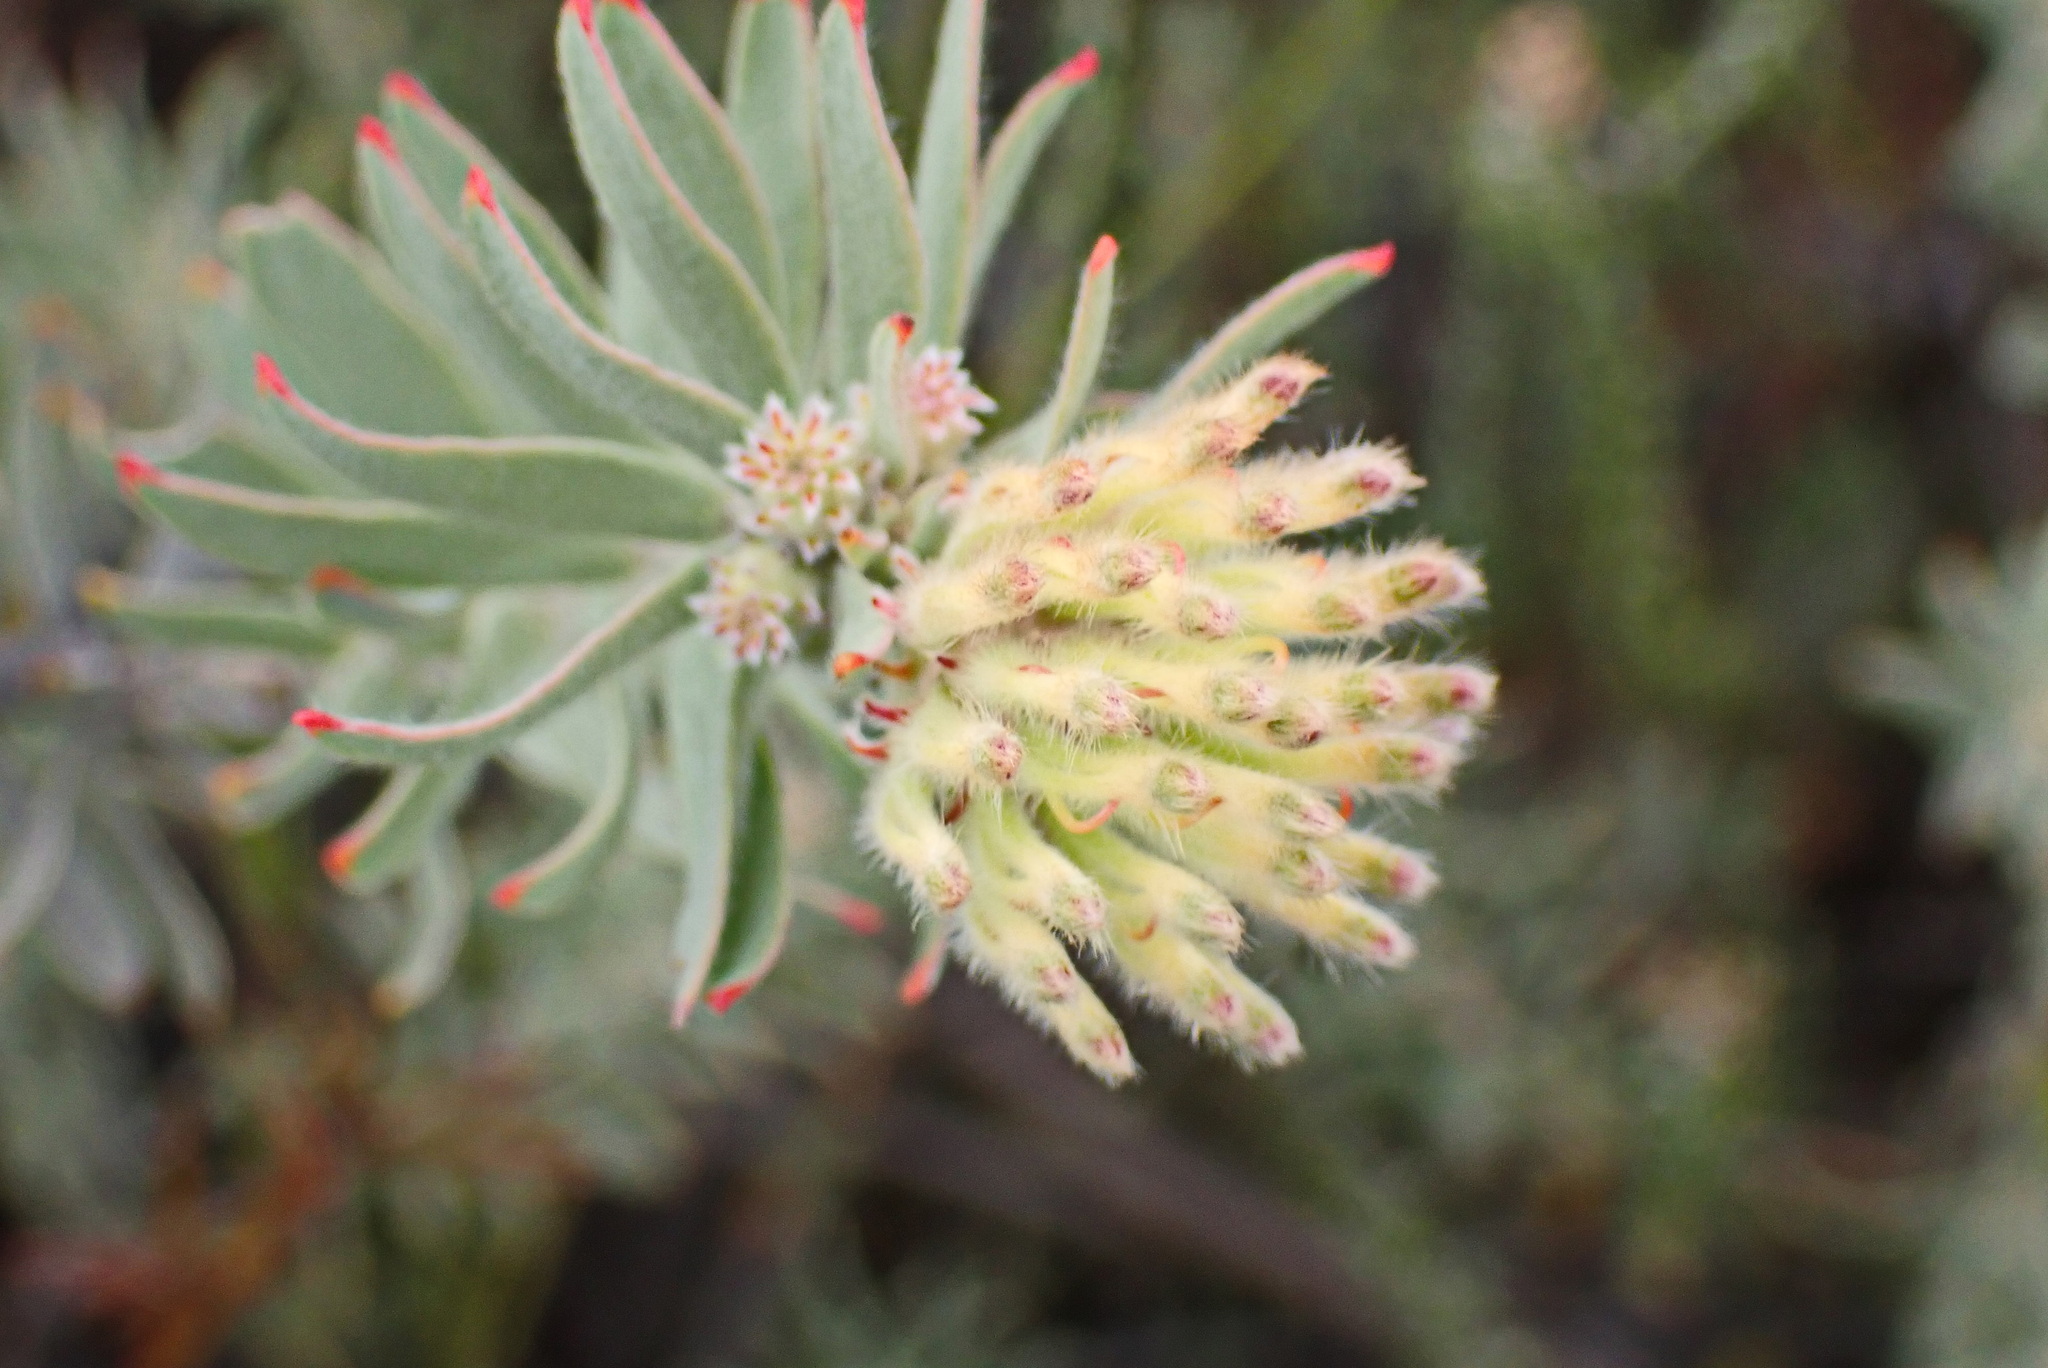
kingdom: Plantae
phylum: Tracheophyta
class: Magnoliopsida
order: Proteales
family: Proteaceae
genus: Leucospermum
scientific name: Leucospermum wittebergense
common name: Swartberg pincushion
